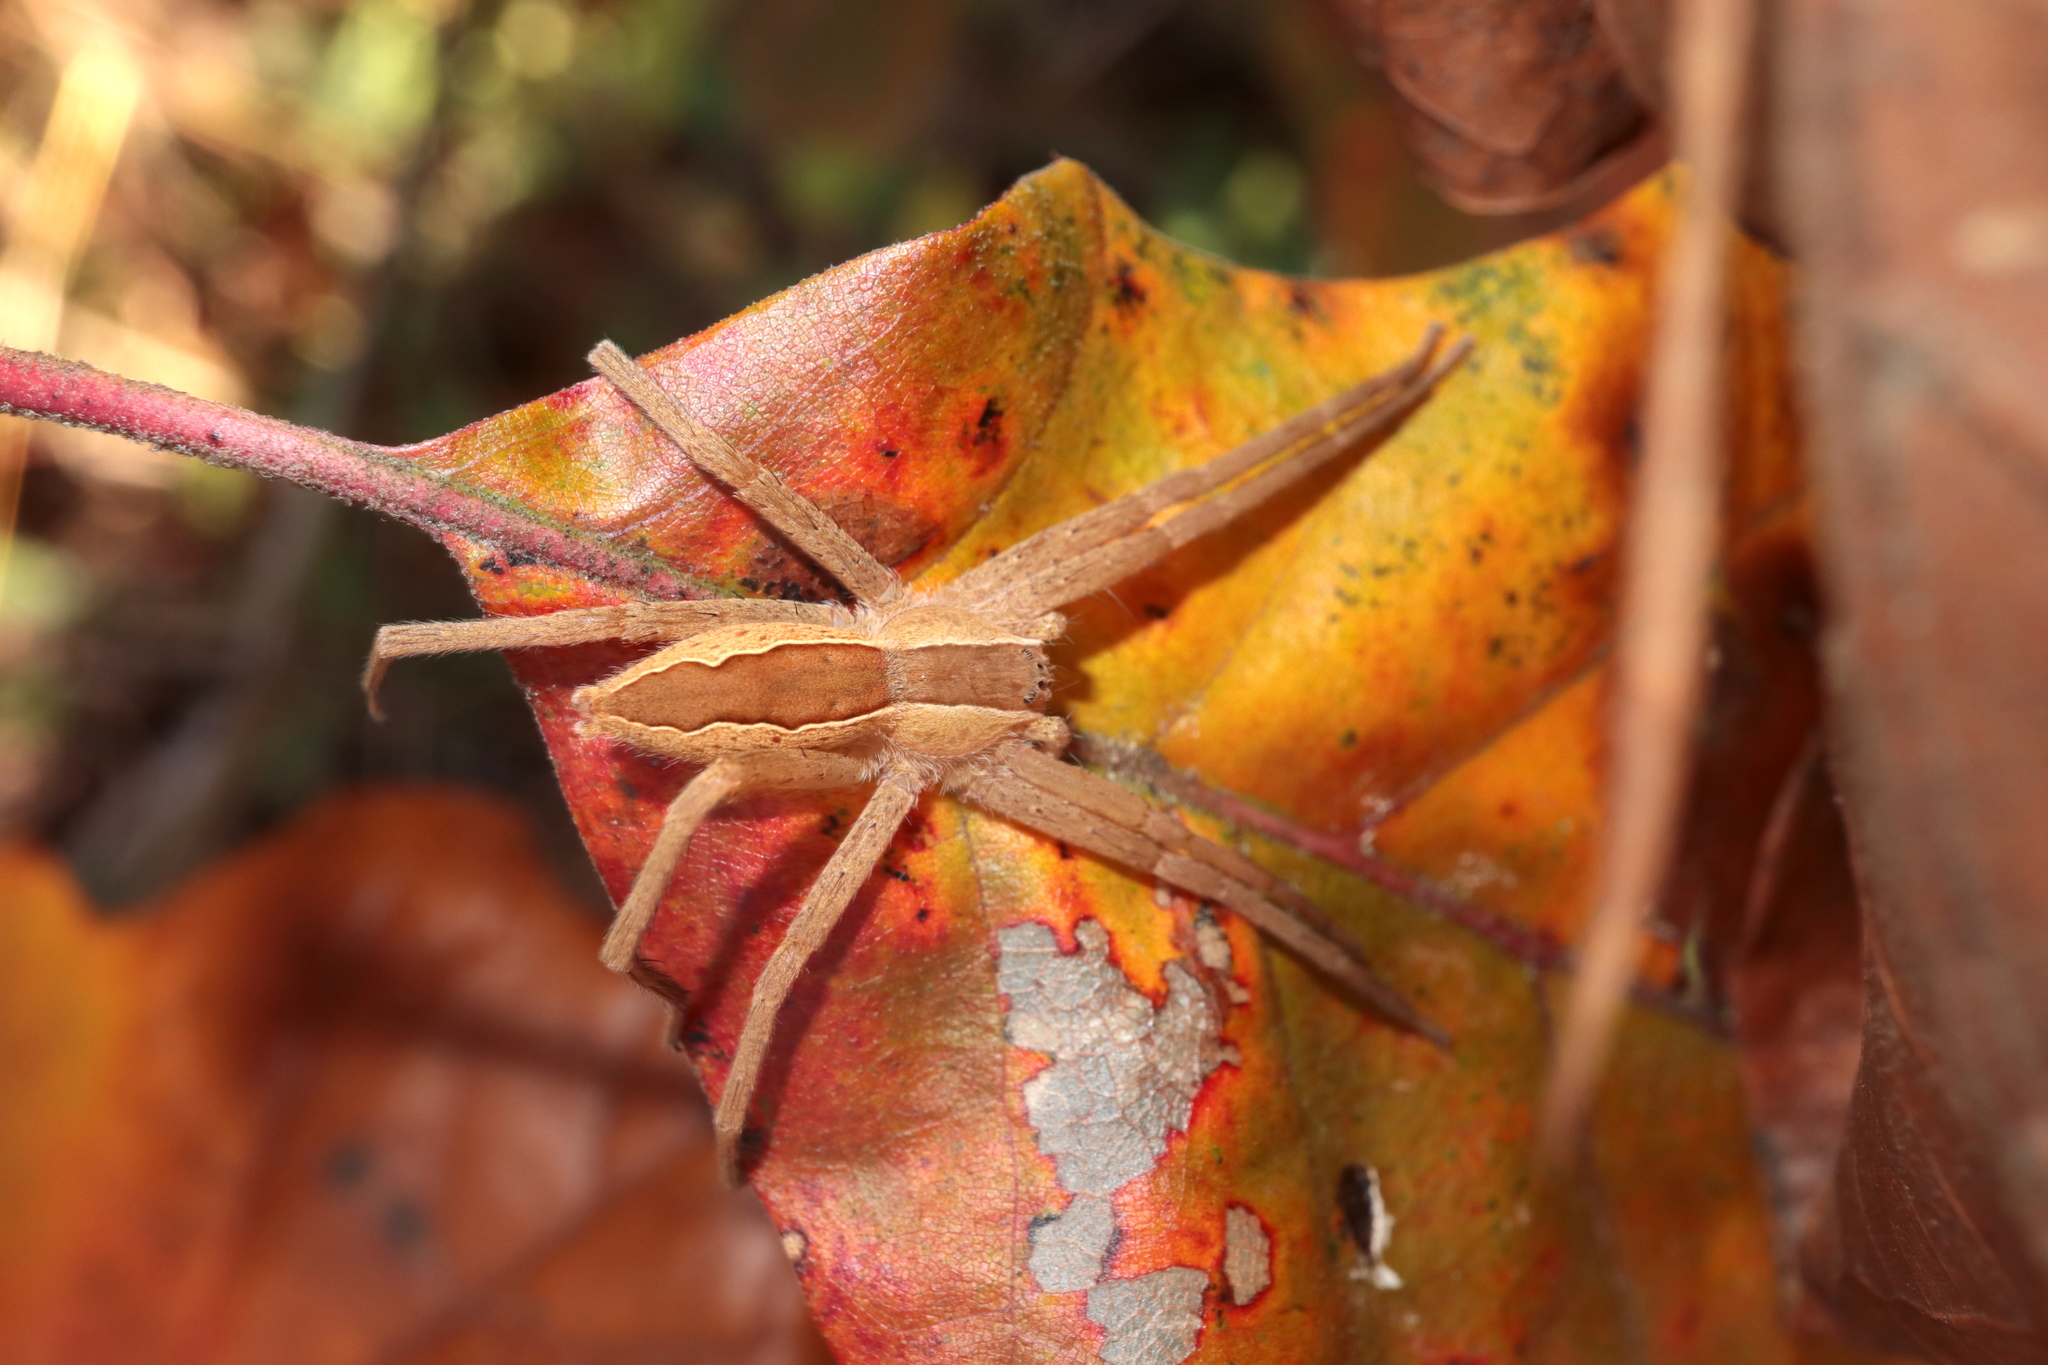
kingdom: Animalia
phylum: Arthropoda
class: Arachnida
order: Araneae
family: Pisauridae
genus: Pisaurina
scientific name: Pisaurina mira
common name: American nursery web spider
